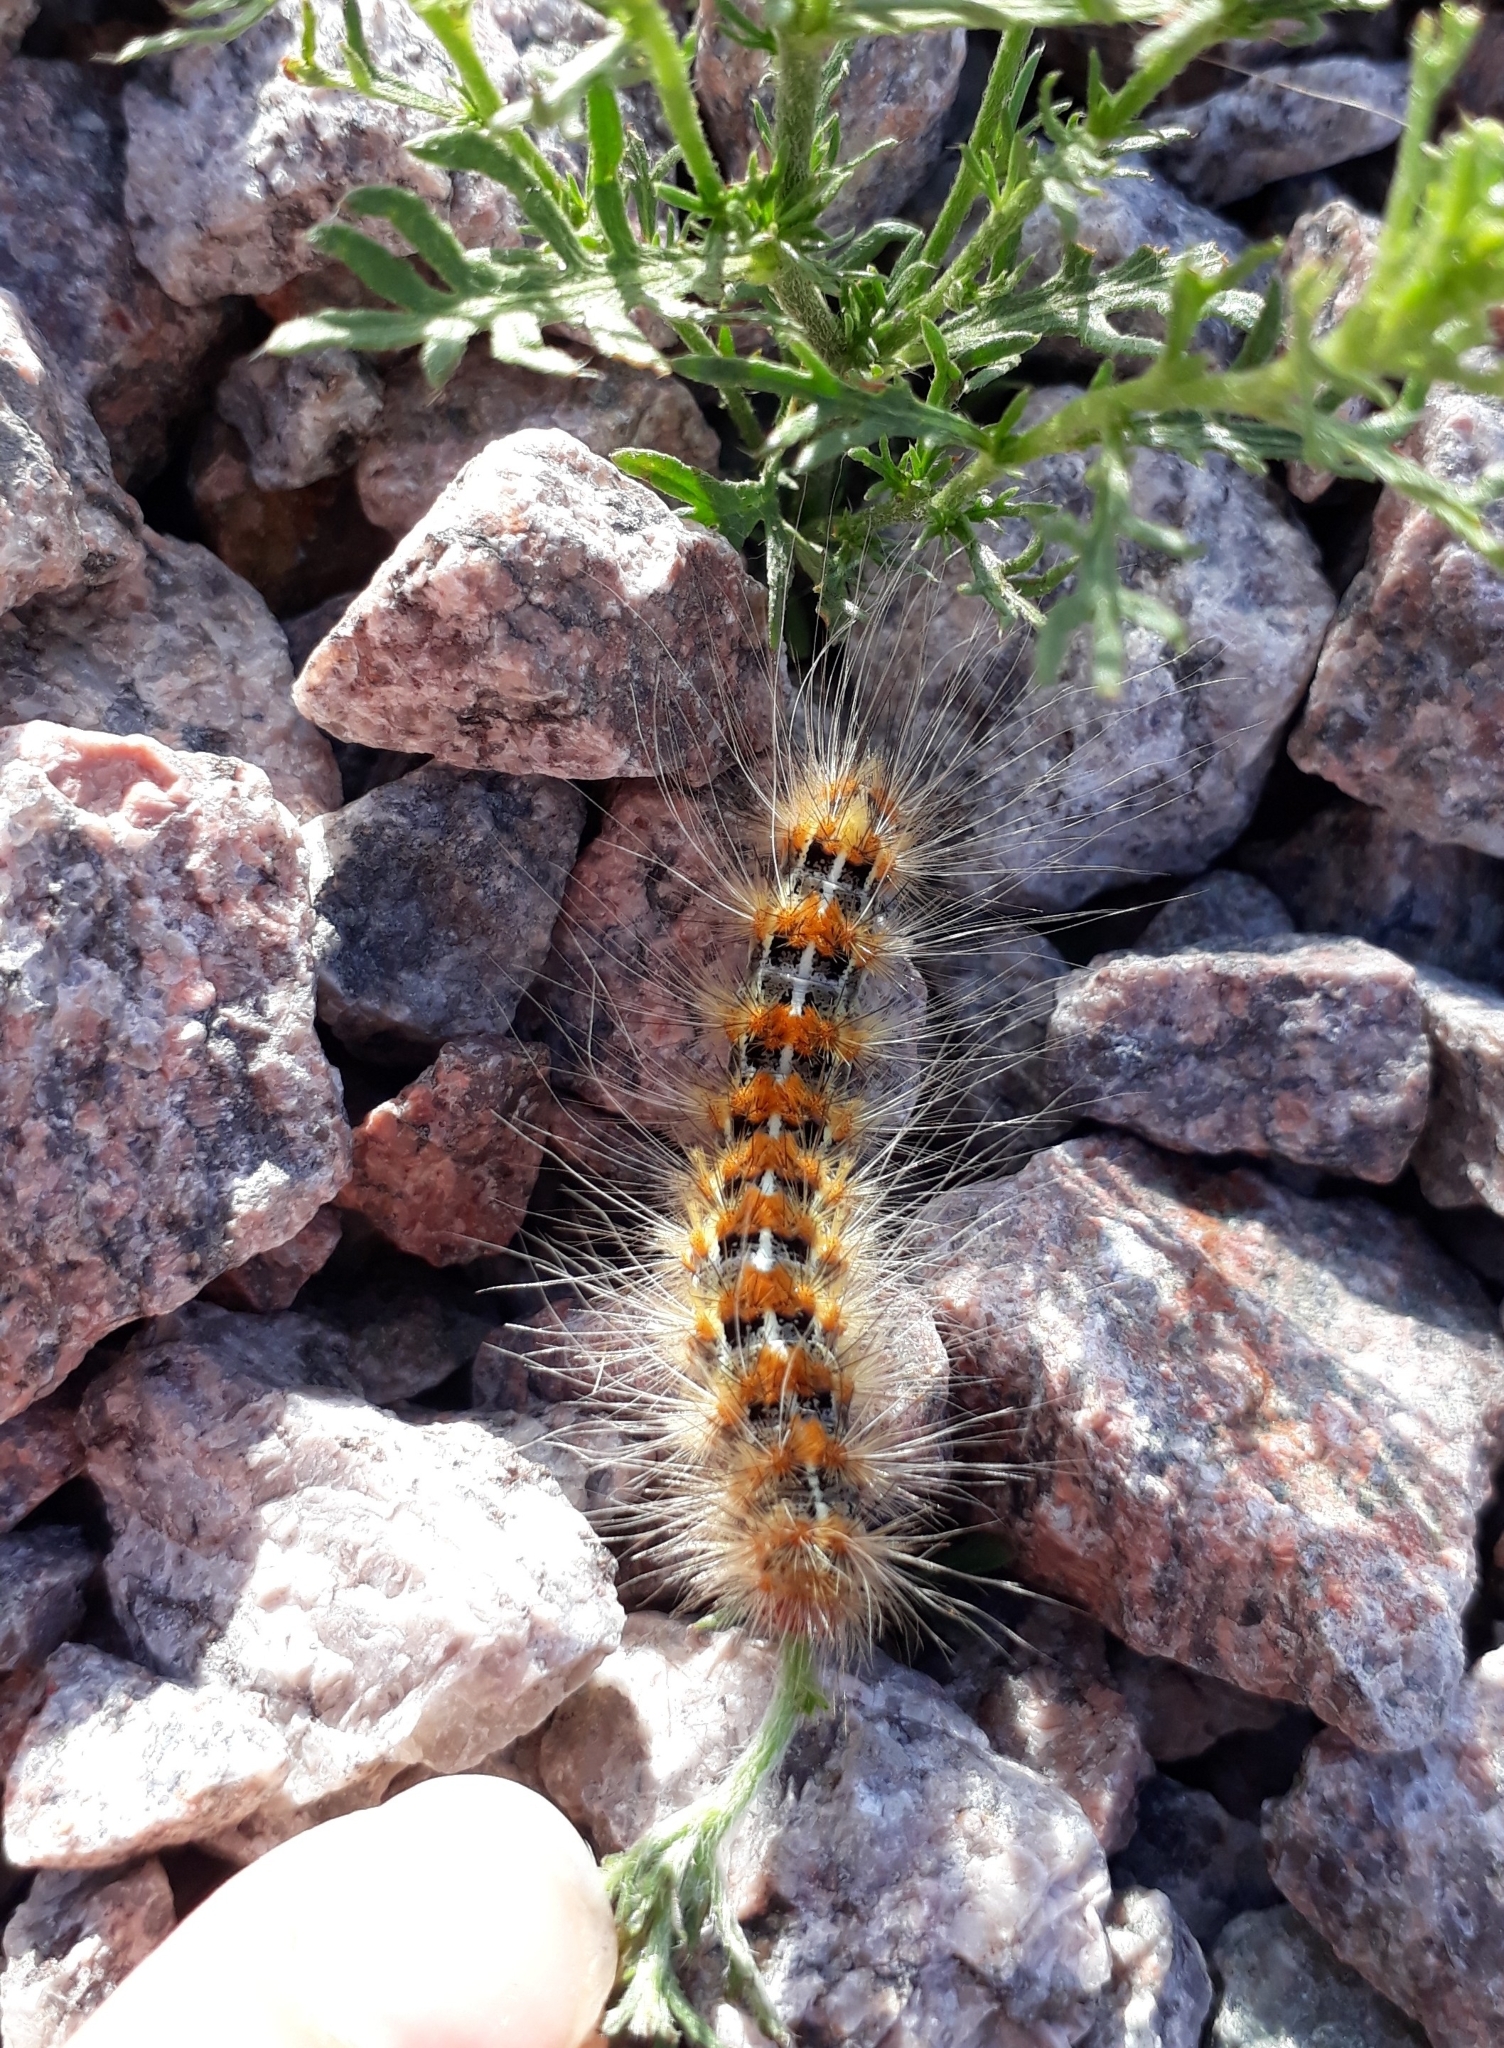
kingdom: Animalia
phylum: Arthropoda
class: Insecta
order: Lepidoptera
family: Erebidae
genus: Paracles
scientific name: Paracles deserticola
